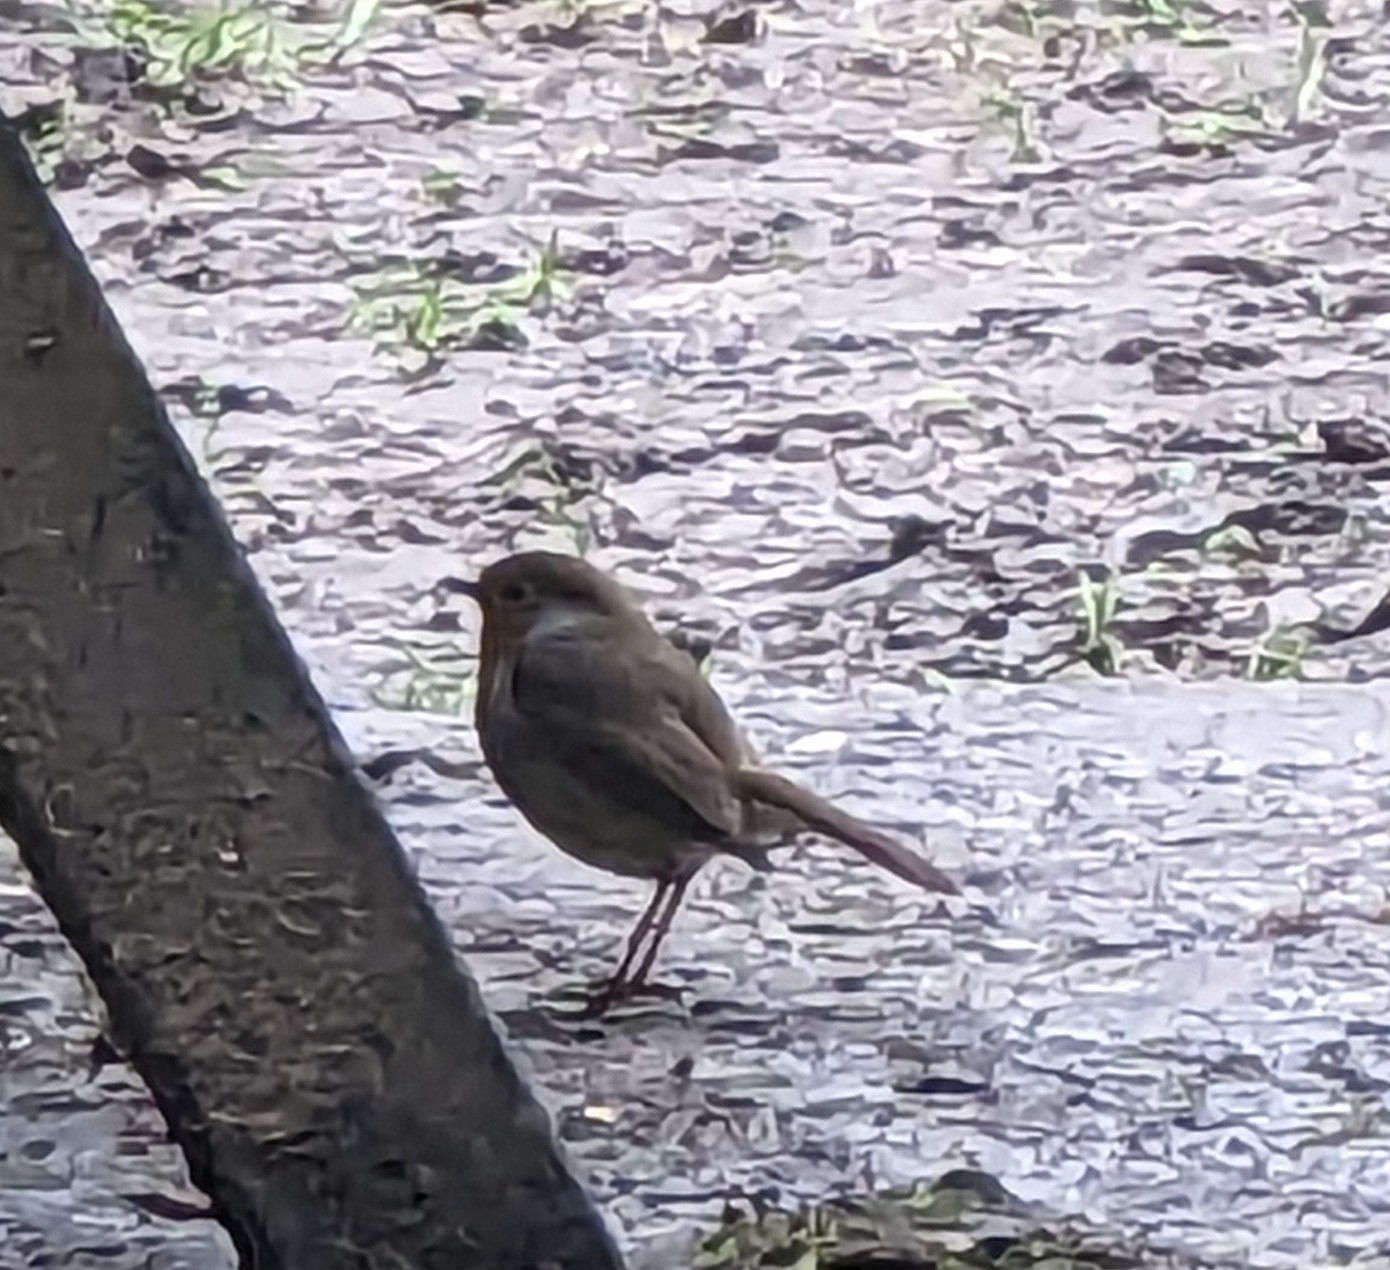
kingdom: Animalia
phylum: Chordata
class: Aves
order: Passeriformes
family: Muscicapidae
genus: Erithacus
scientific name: Erithacus rubecula
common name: European robin
